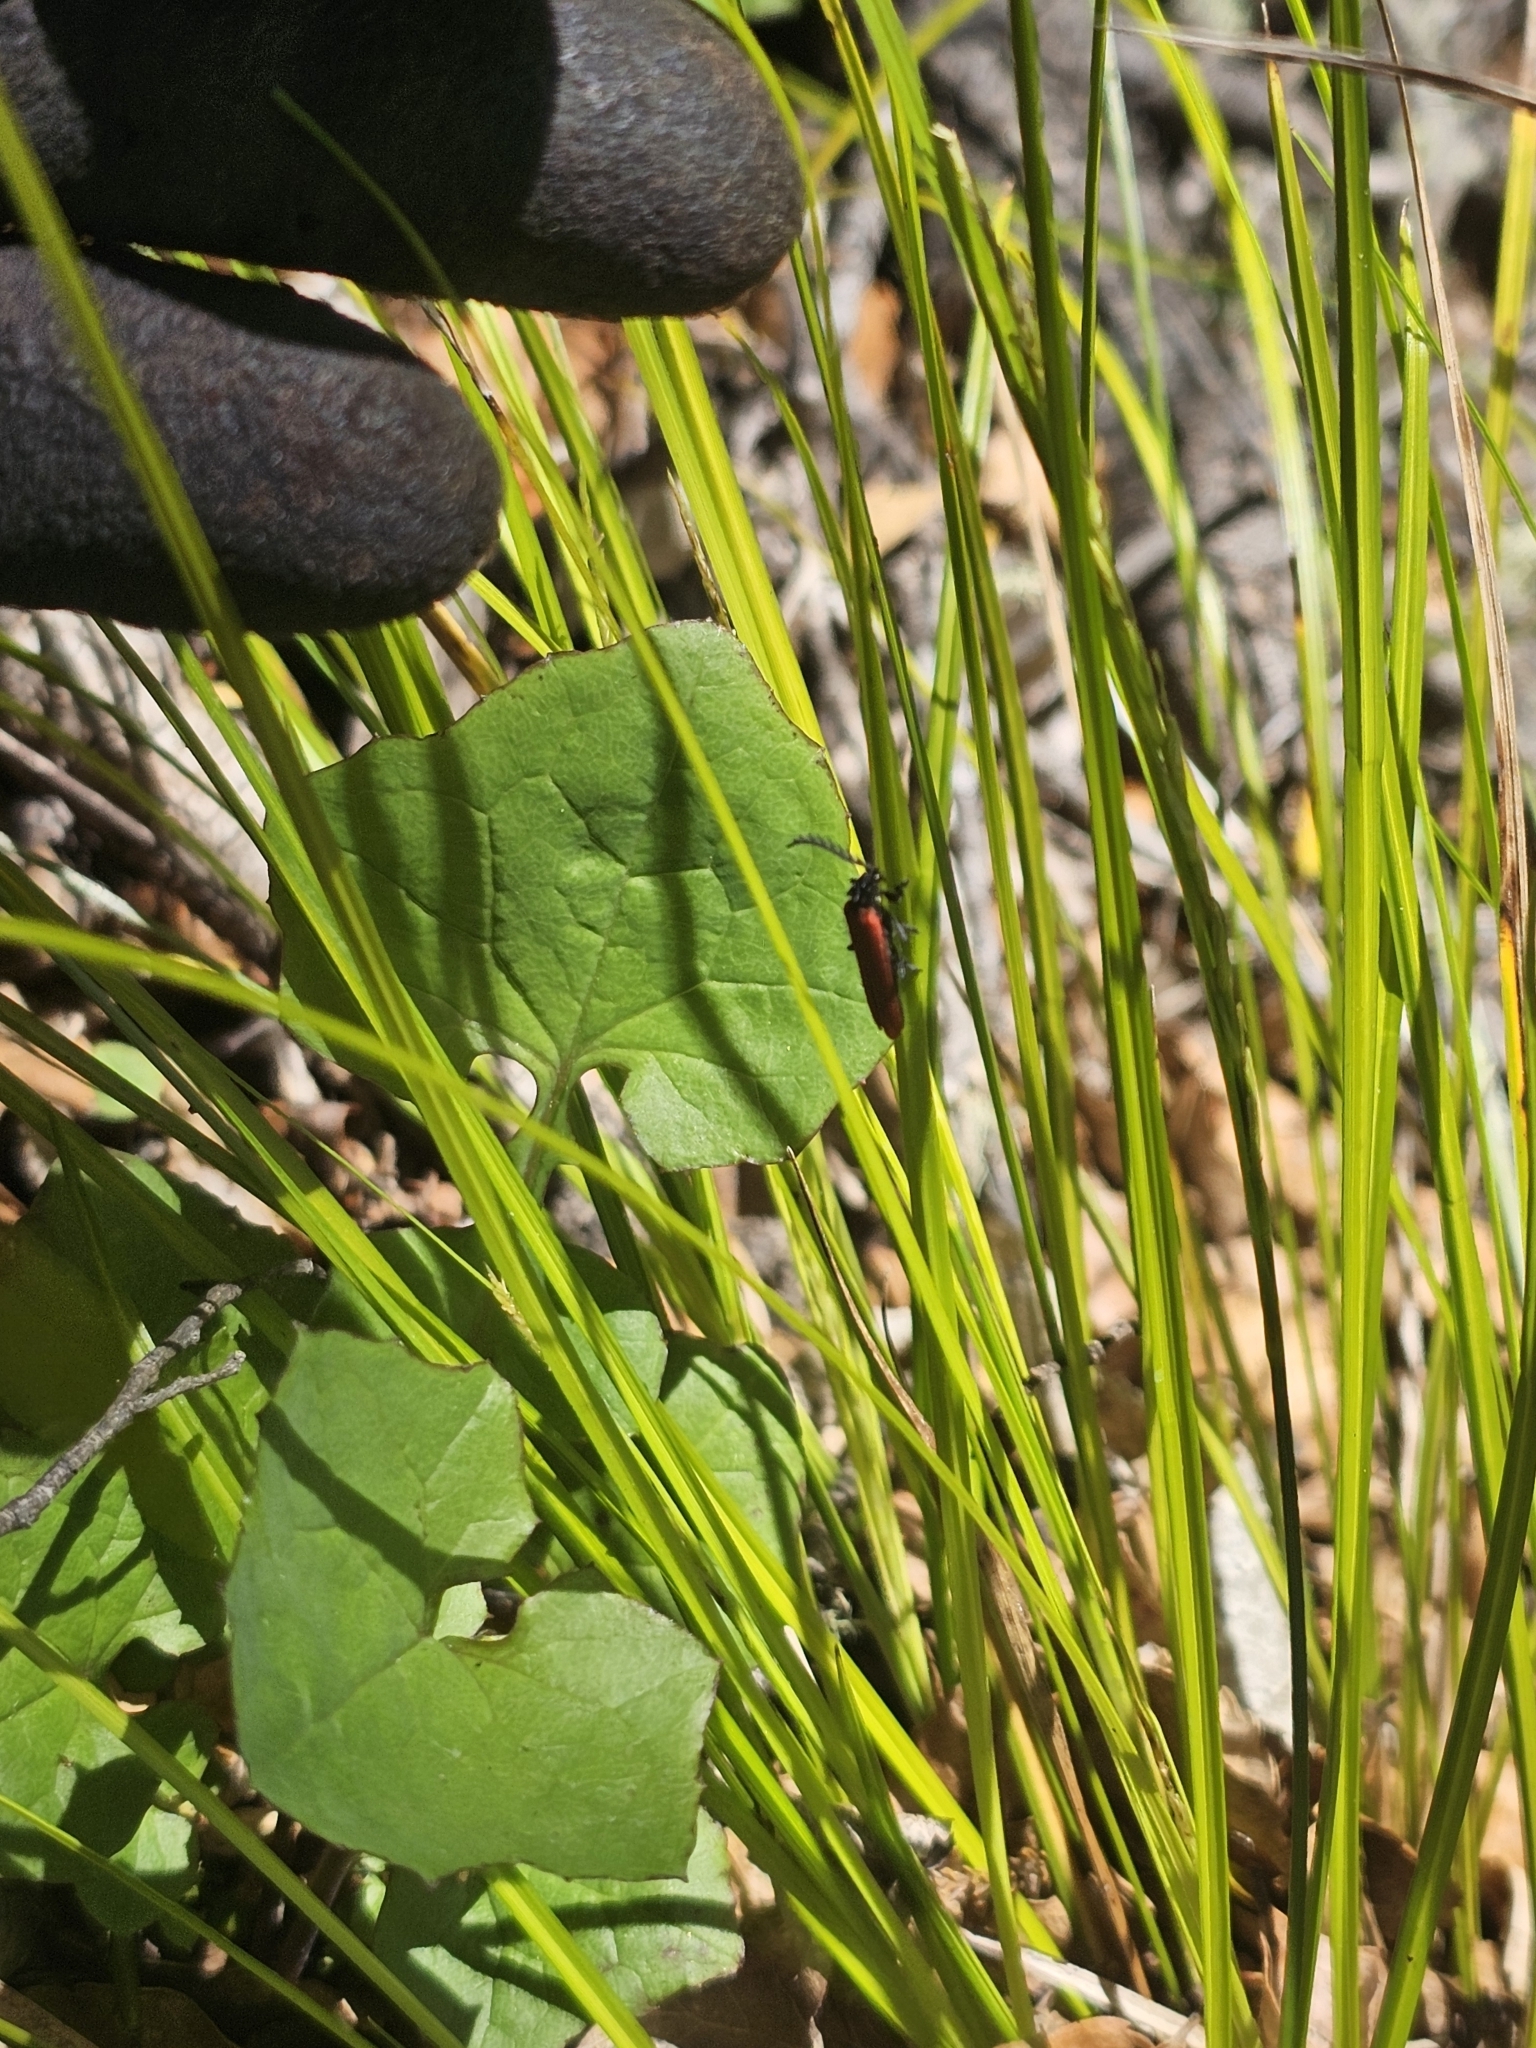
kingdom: Animalia
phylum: Arthropoda
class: Insecta
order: Coleoptera
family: Lycidae
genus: Porrostoma
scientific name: Porrostoma rufipenne
